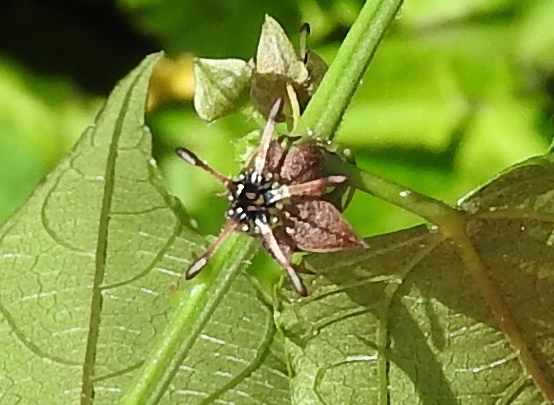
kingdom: Plantae
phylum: Tracheophyta
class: Magnoliopsida
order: Malvales
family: Malvaceae
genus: Byttneria
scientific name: Byttneria aculeata
